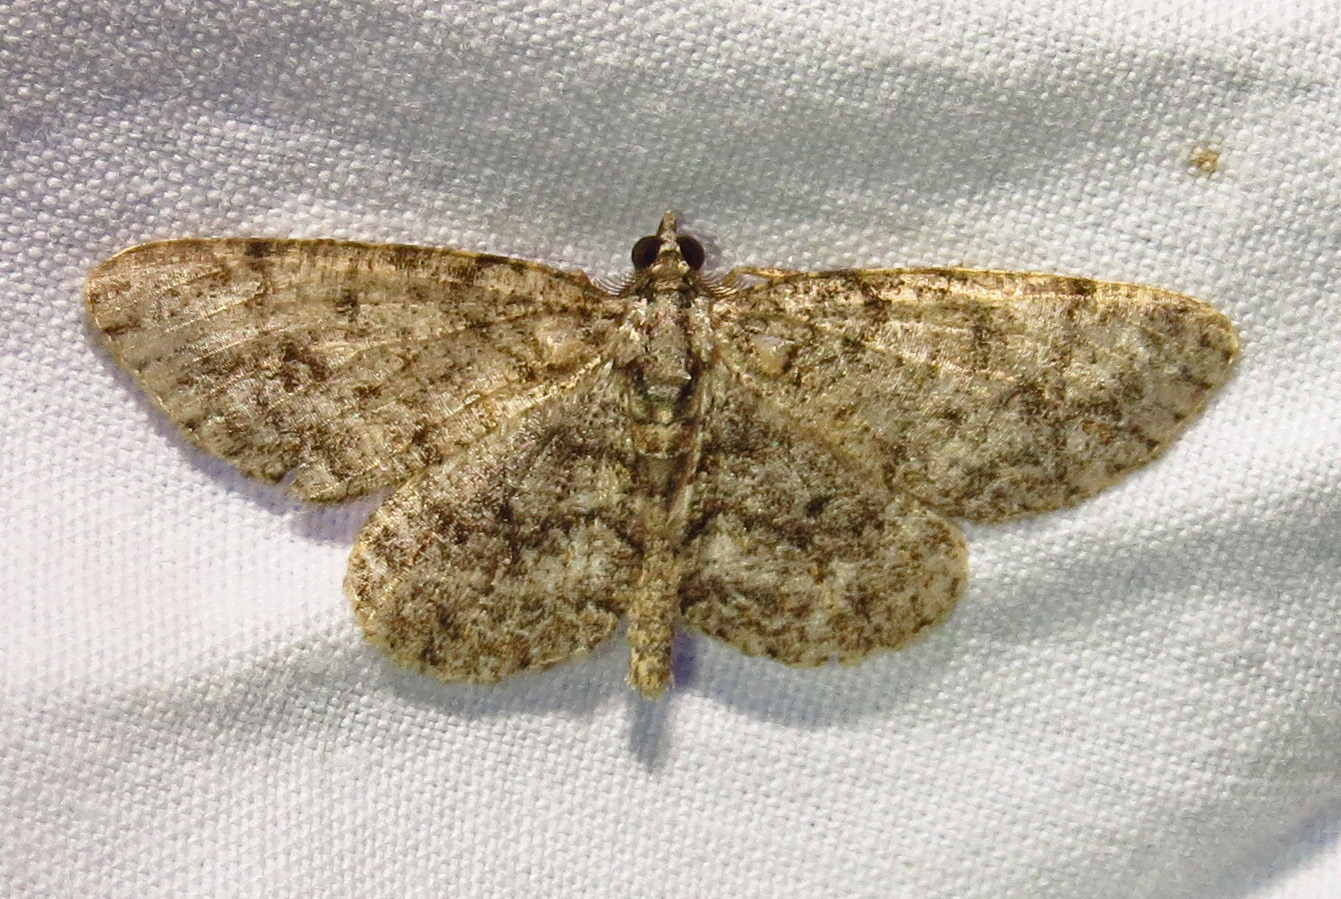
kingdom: Animalia
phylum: Arthropoda
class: Insecta
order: Lepidoptera
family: Geometridae
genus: Protoboarmia
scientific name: Protoboarmia porcelaria
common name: Porcelain gray
